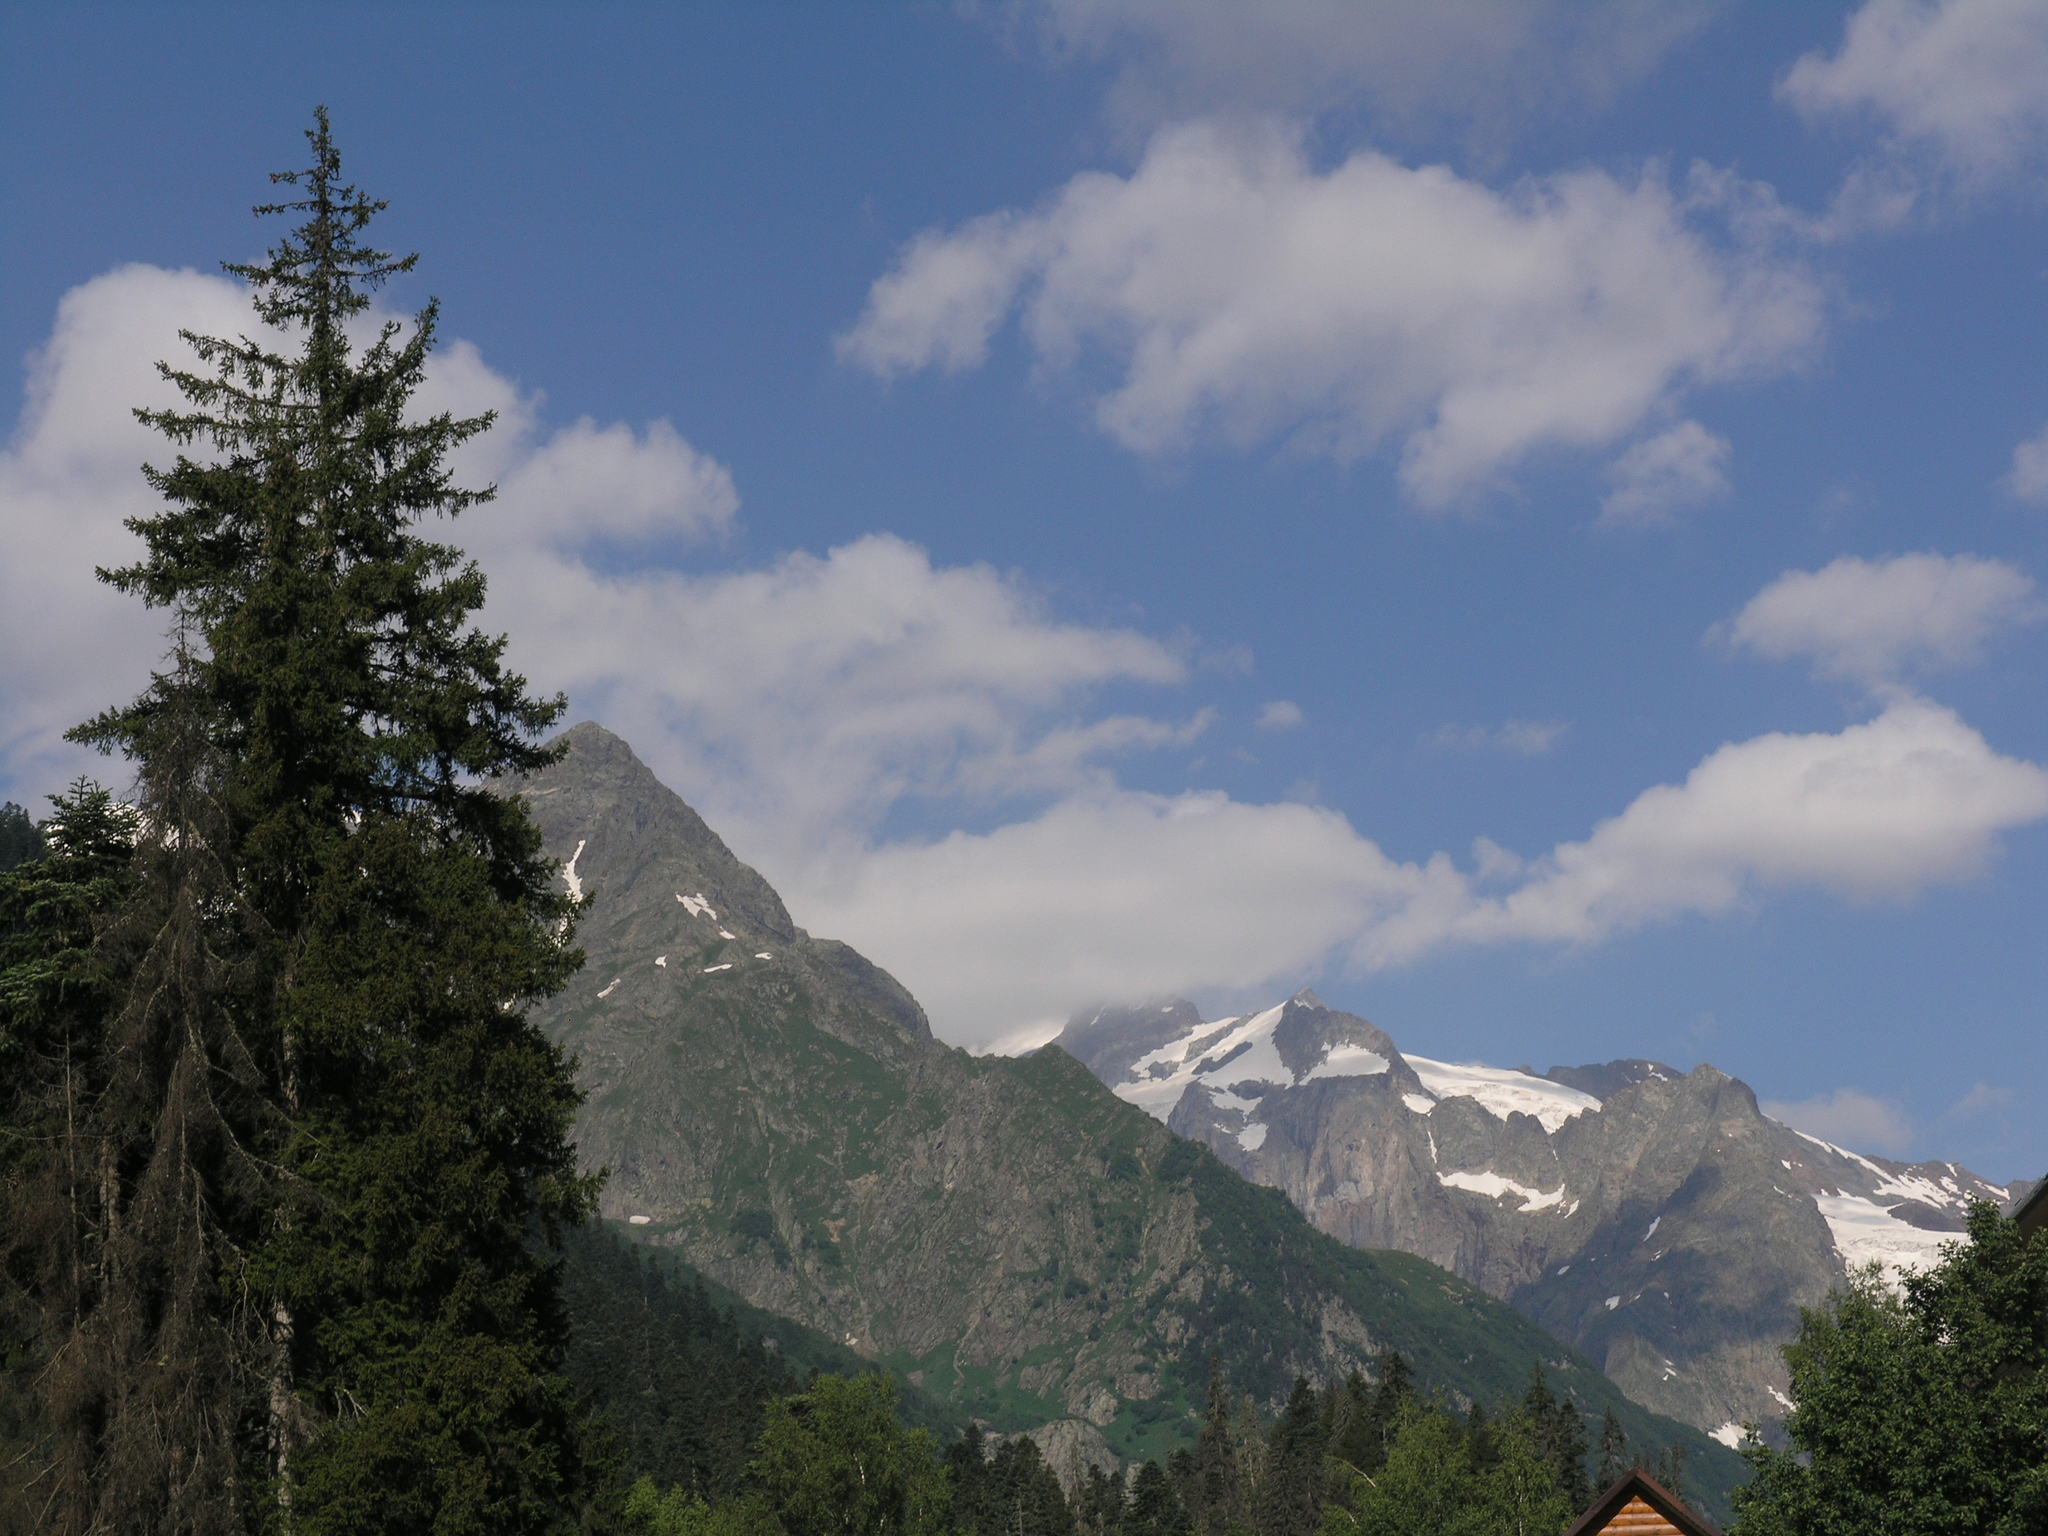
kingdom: Plantae
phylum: Tracheophyta
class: Pinopsida
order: Pinales
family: Pinaceae
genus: Picea
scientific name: Picea orientalis
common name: Oriental spruce
